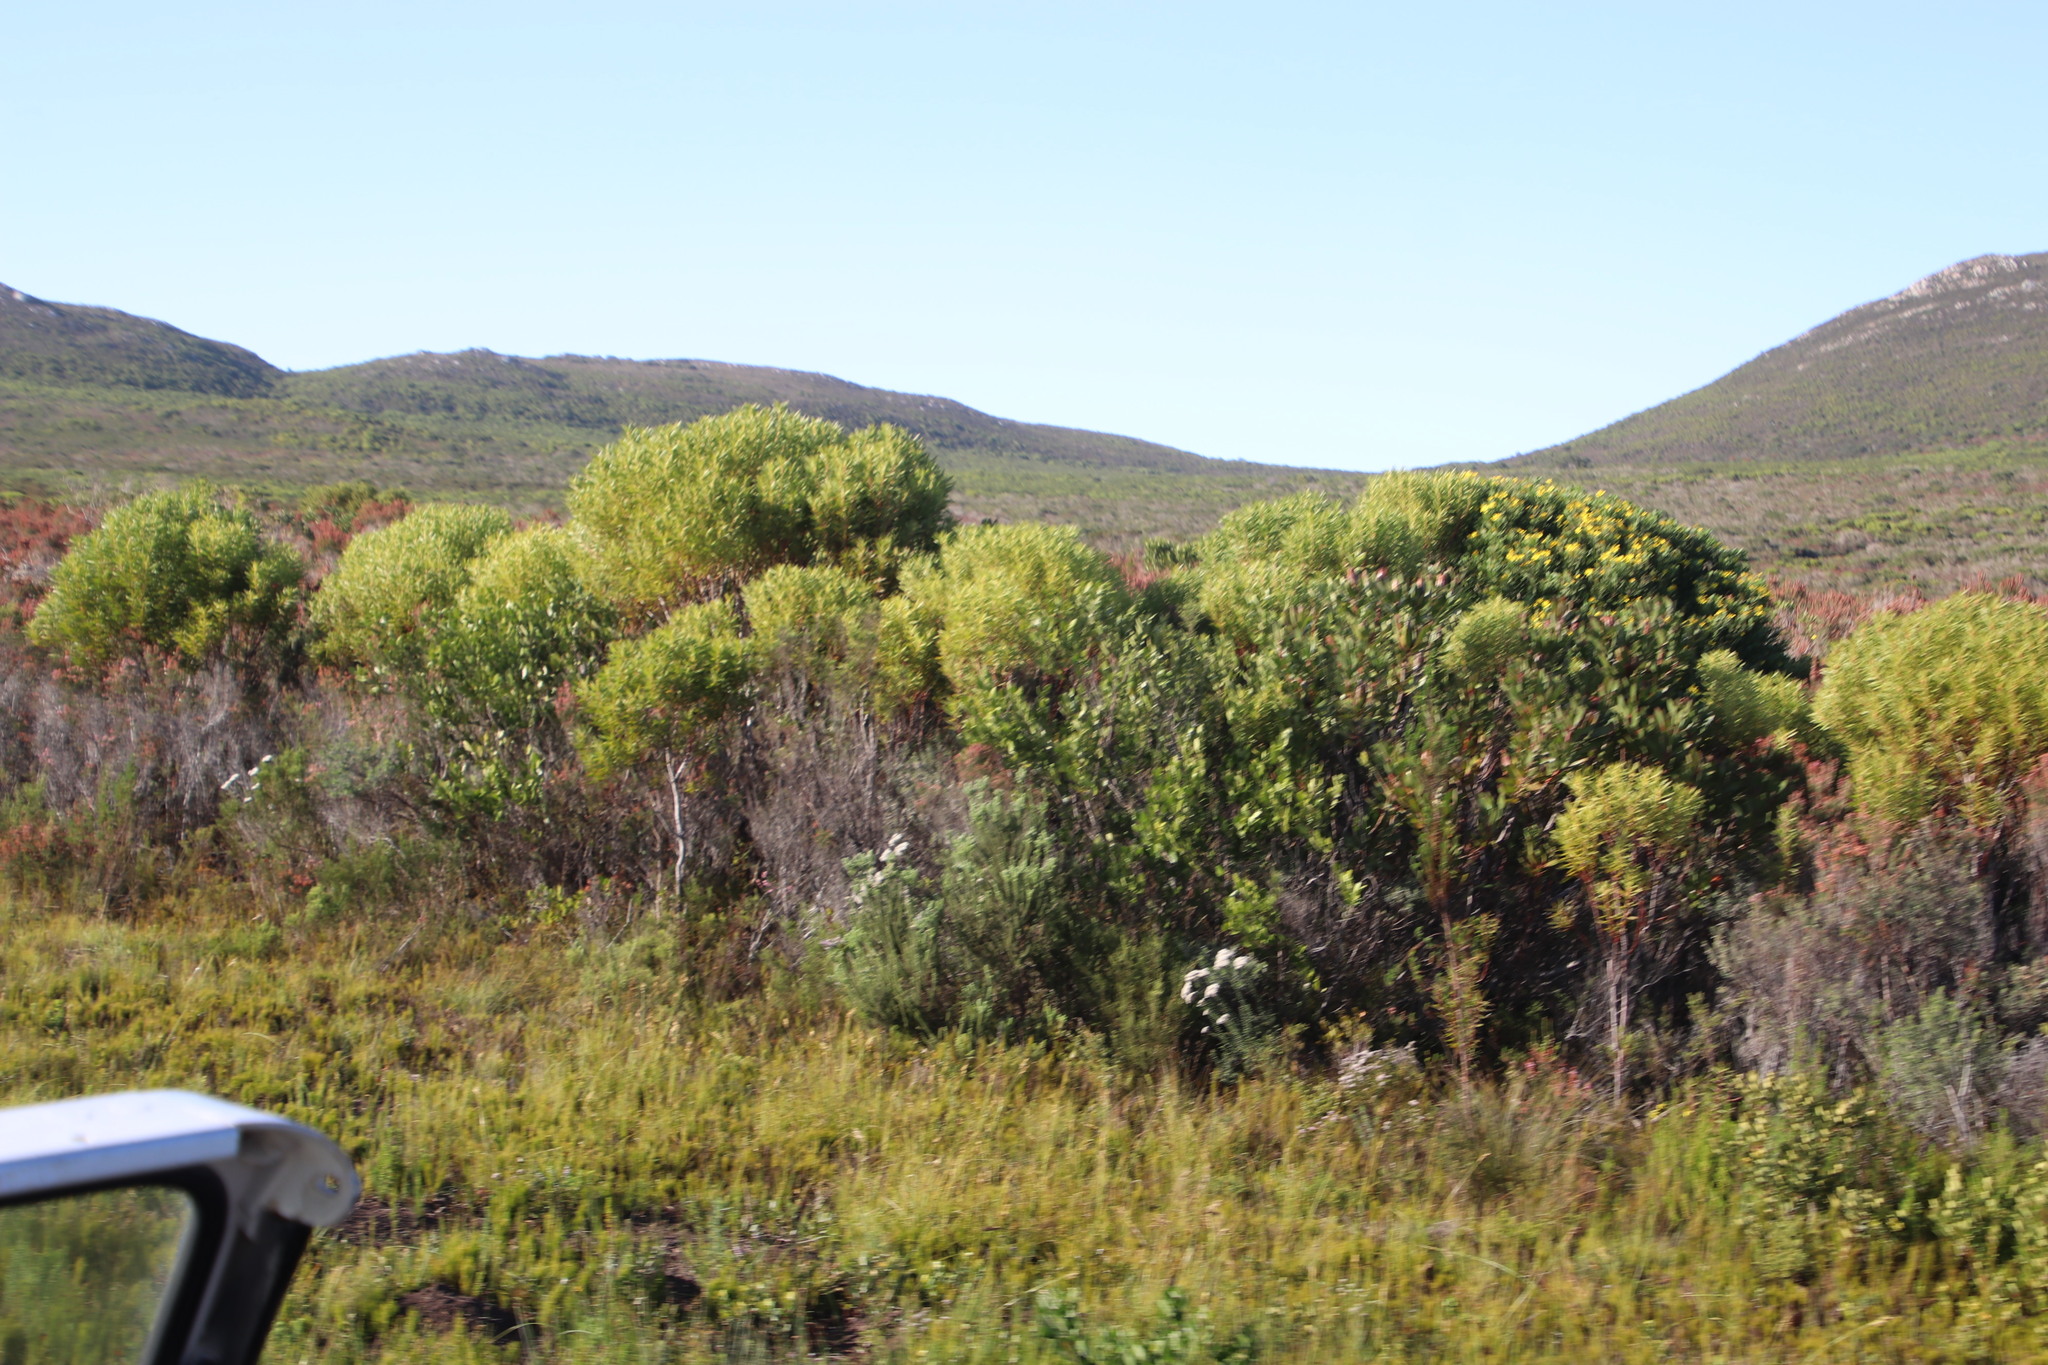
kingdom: Plantae
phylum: Tracheophyta
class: Magnoliopsida
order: Proteales
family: Proteaceae
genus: Leucadendron
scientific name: Leucadendron meridianum
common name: Limestone conebush
